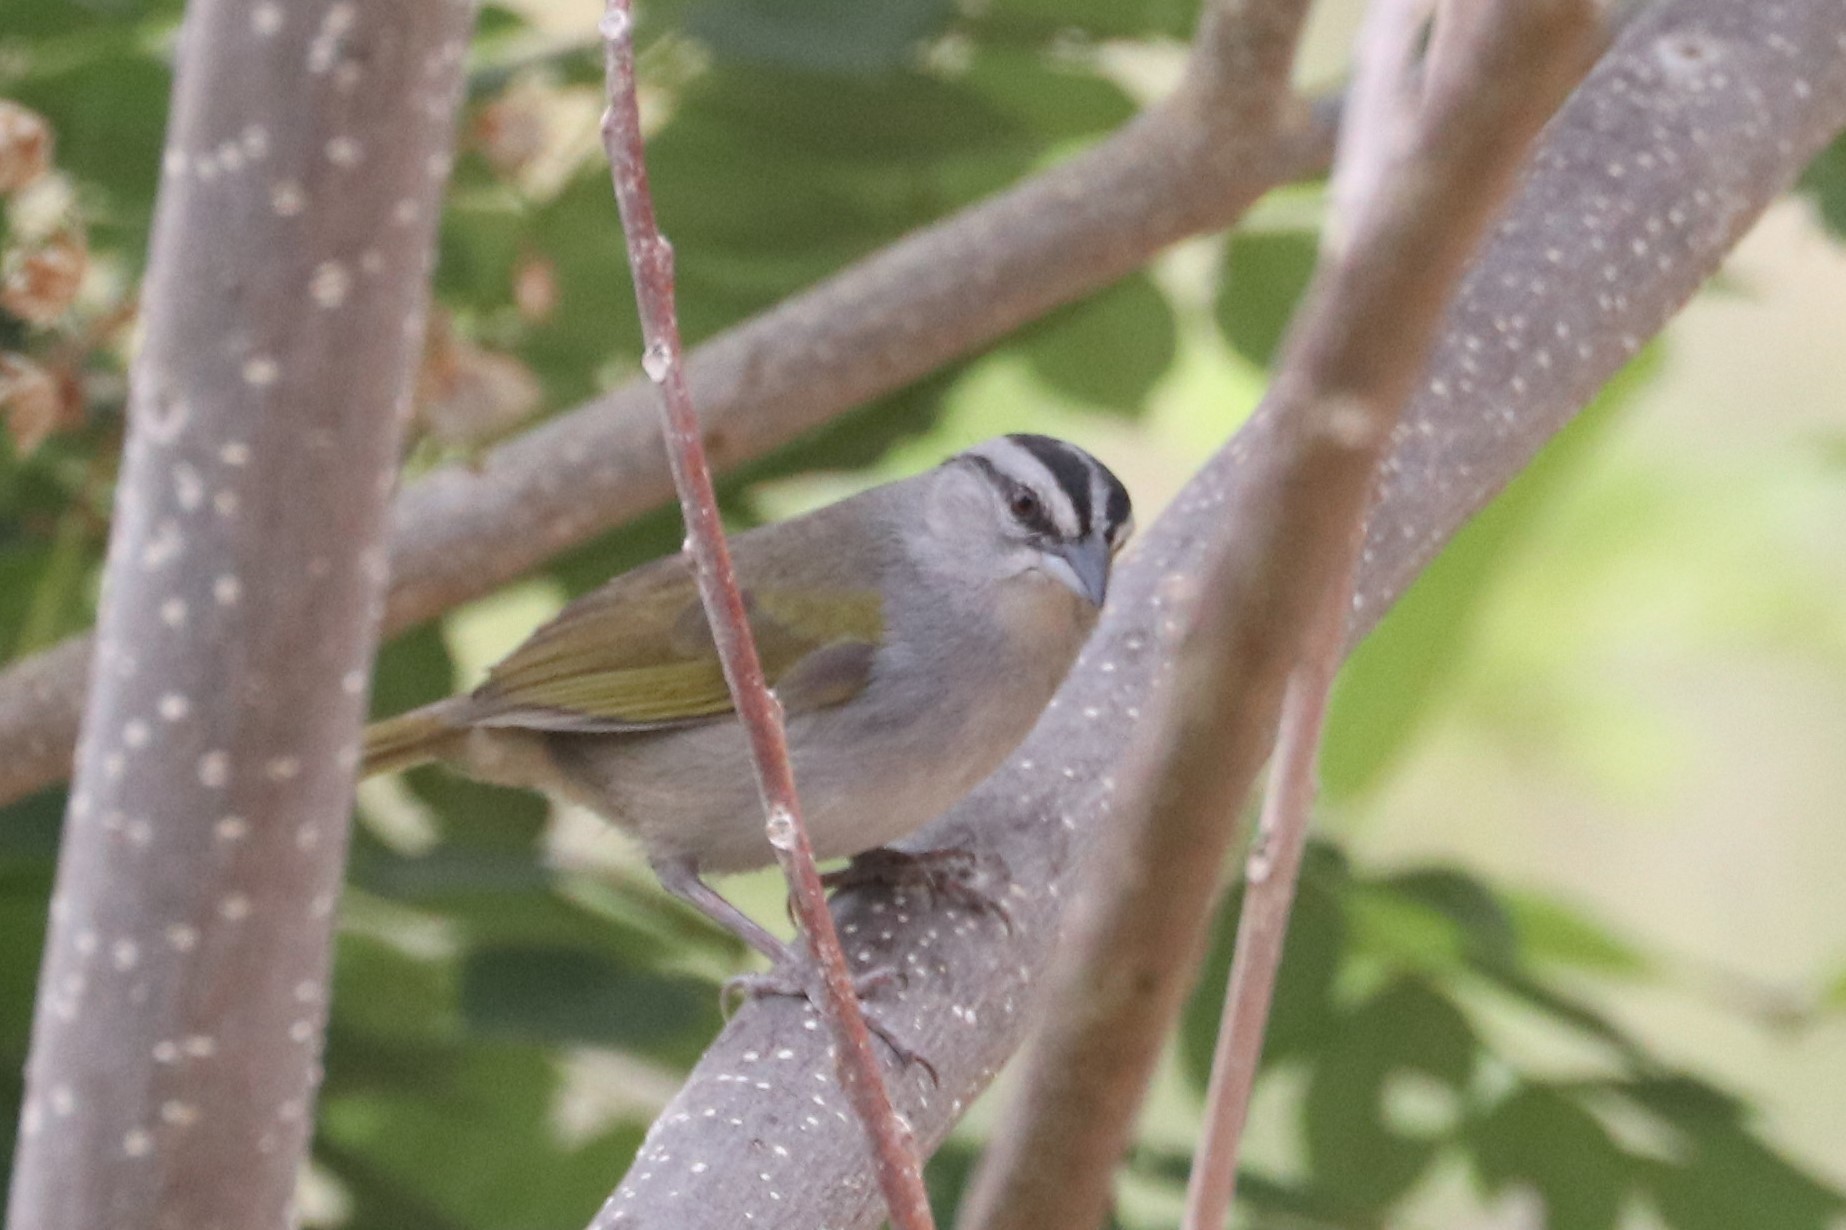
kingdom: Animalia
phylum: Chordata
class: Aves
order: Passeriformes
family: Passerellidae
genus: Arremonops
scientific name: Arremonops conirostris
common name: Black-striped sparrow
